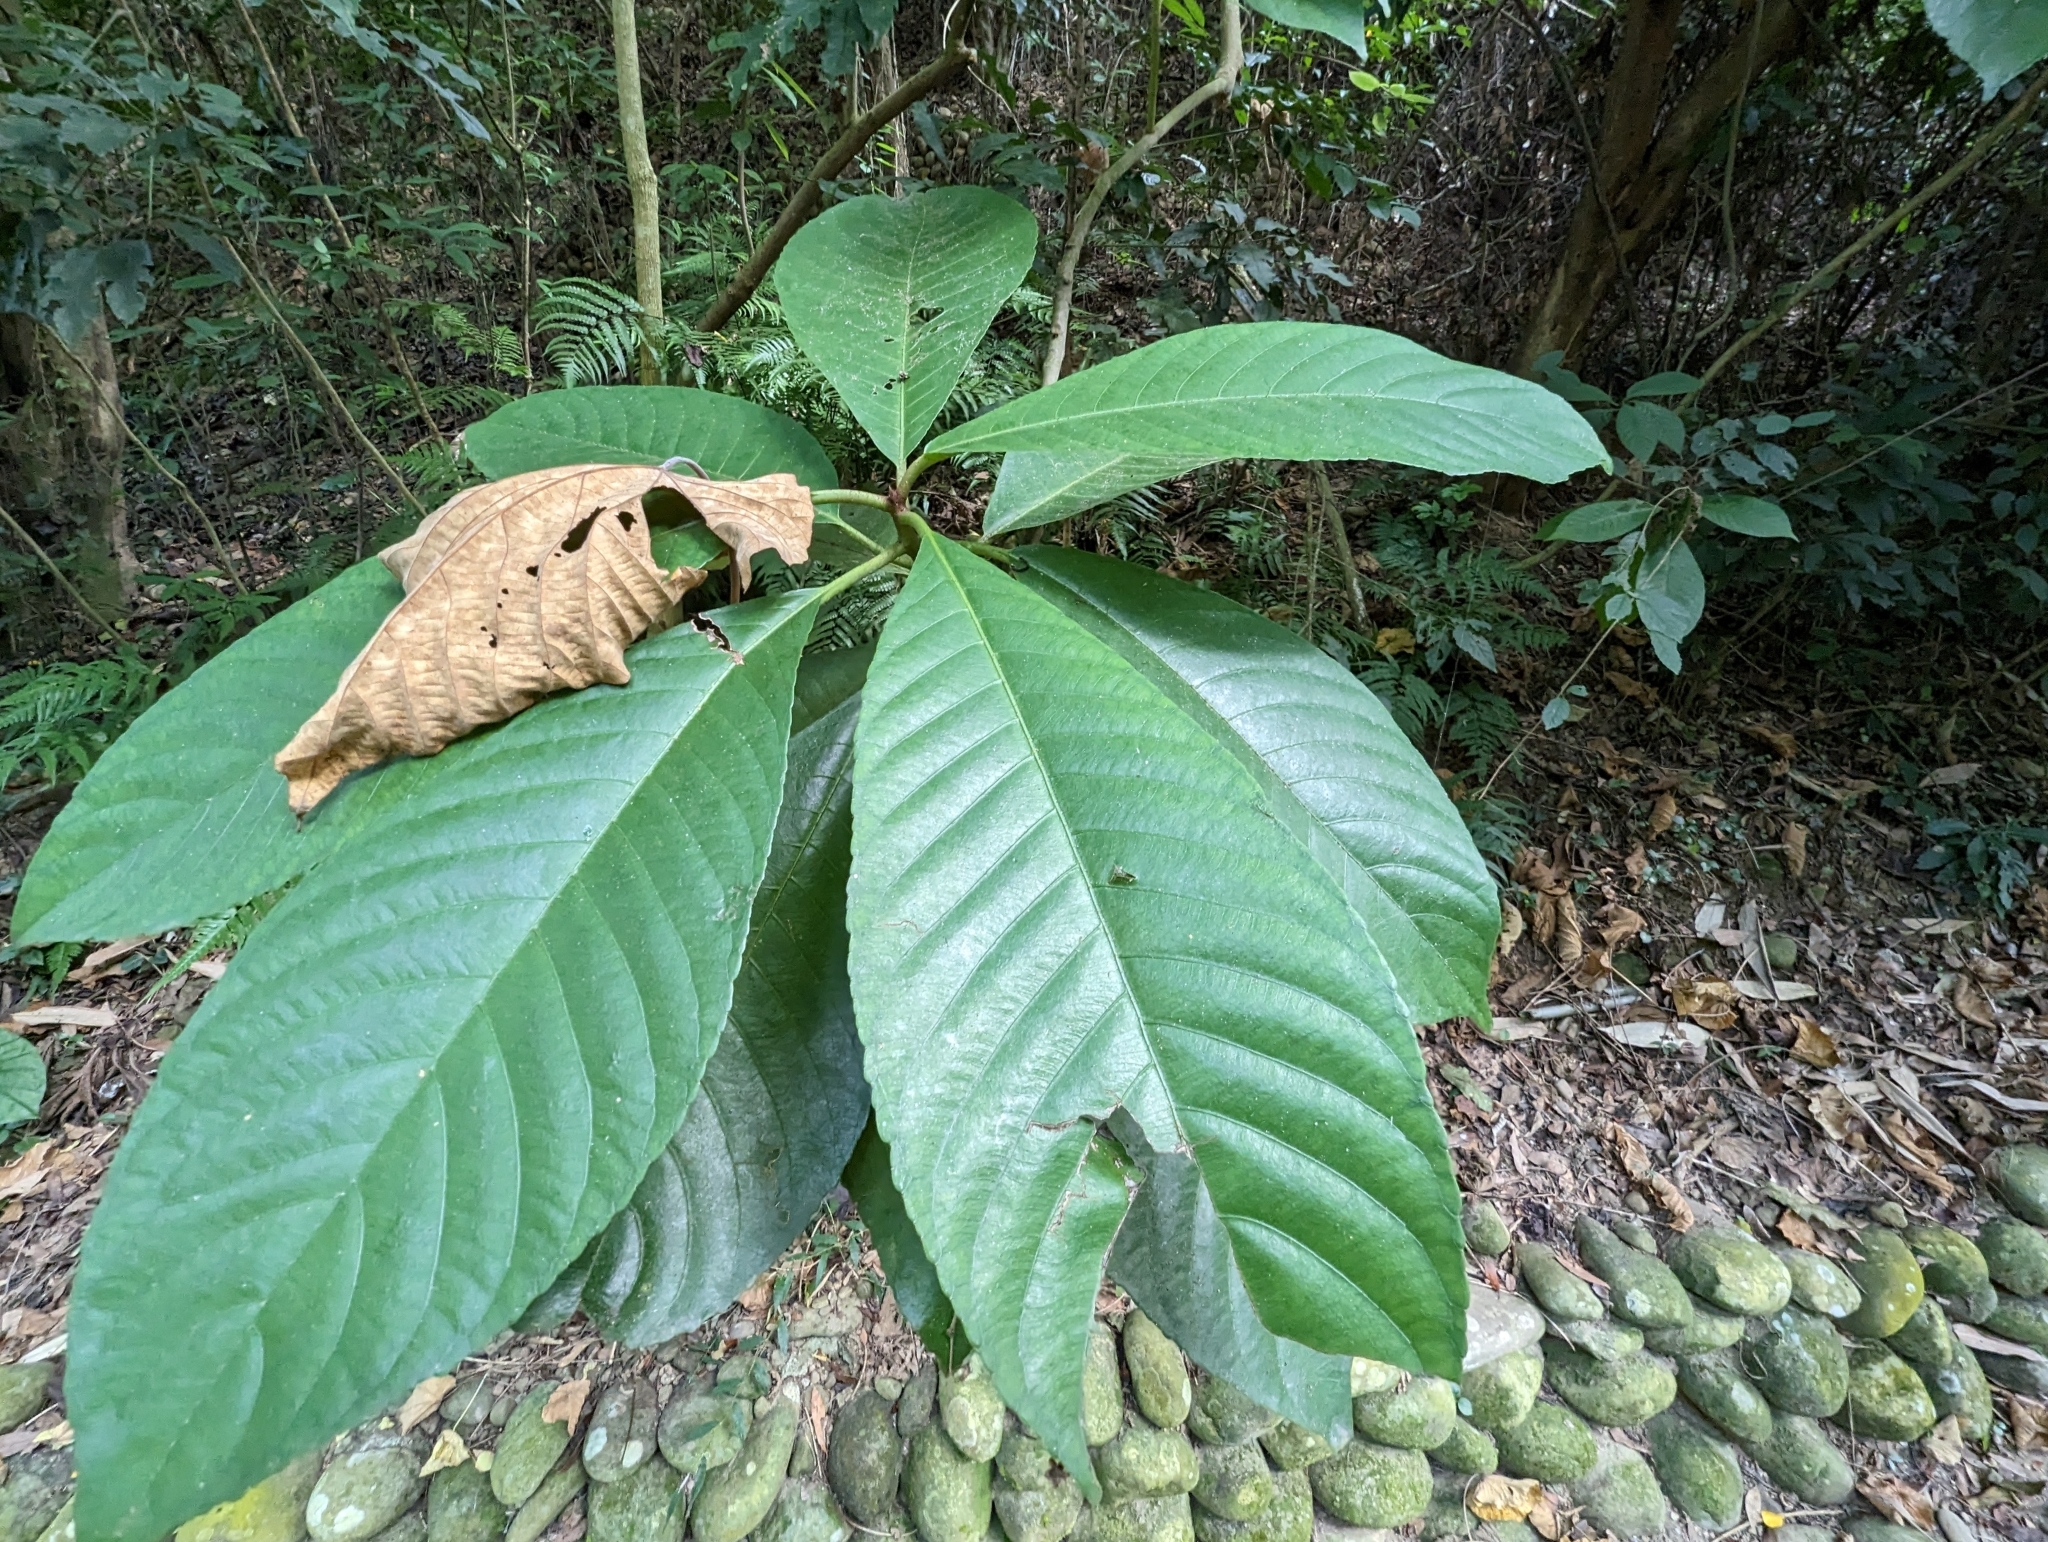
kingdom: Plantae
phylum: Tracheophyta
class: Magnoliopsida
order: Ericales
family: Actinidiaceae
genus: Saurauia
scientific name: Saurauia tristyla
